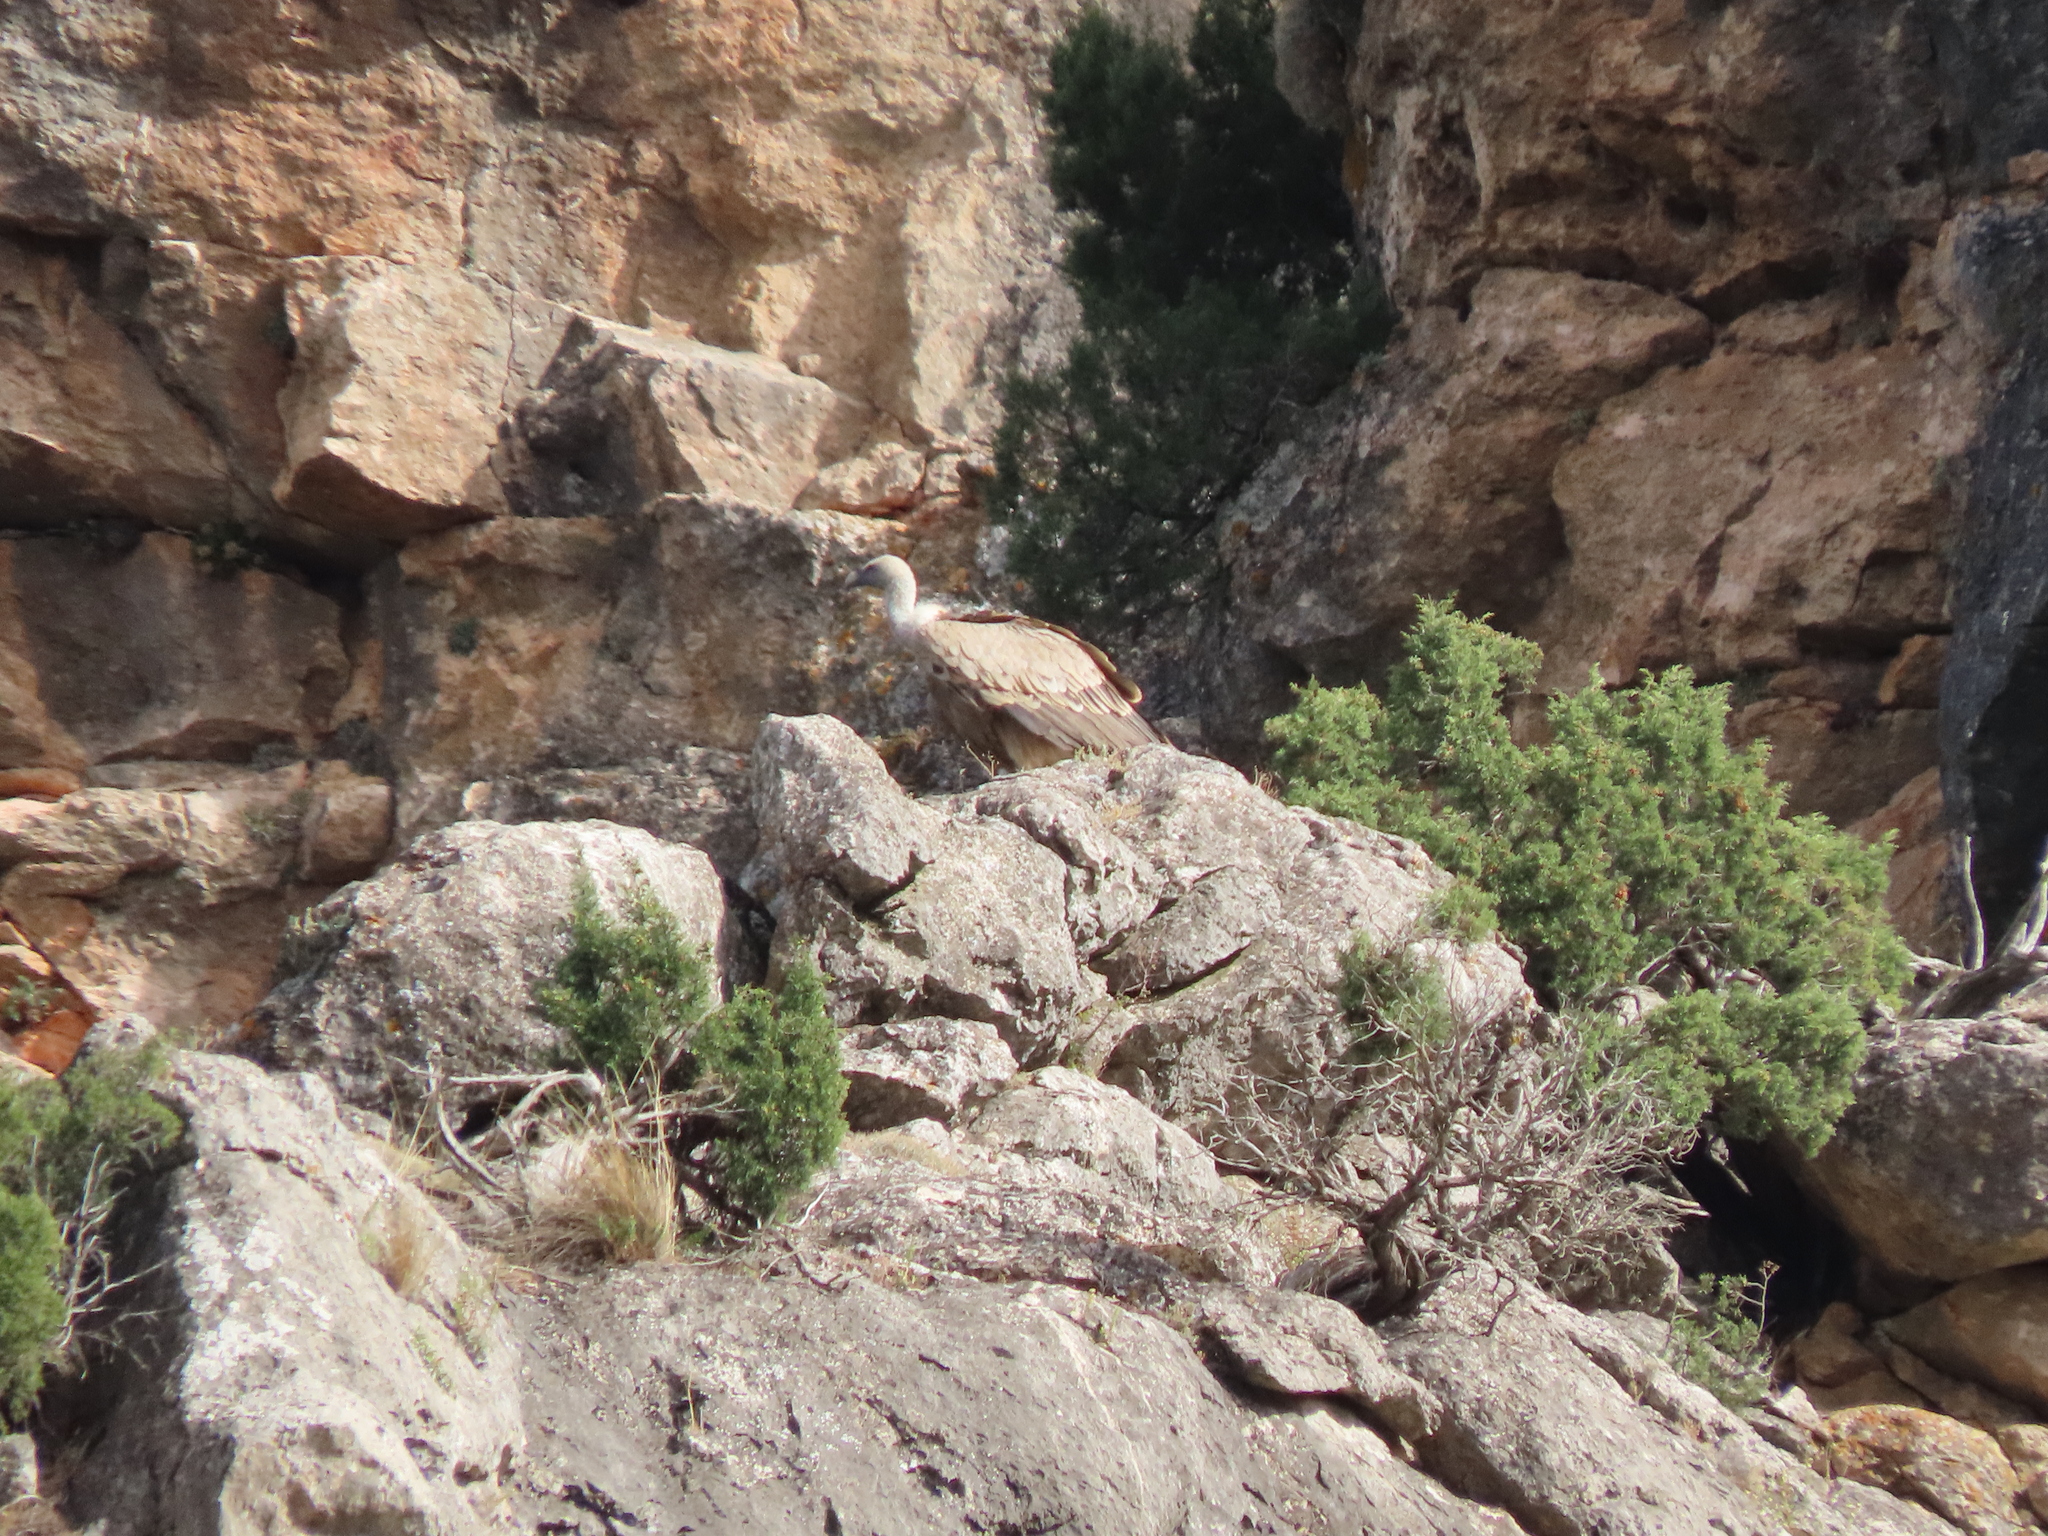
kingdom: Animalia
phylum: Chordata
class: Aves
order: Accipitriformes
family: Accipitridae
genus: Gyps
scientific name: Gyps fulvus
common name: Griffon vulture
